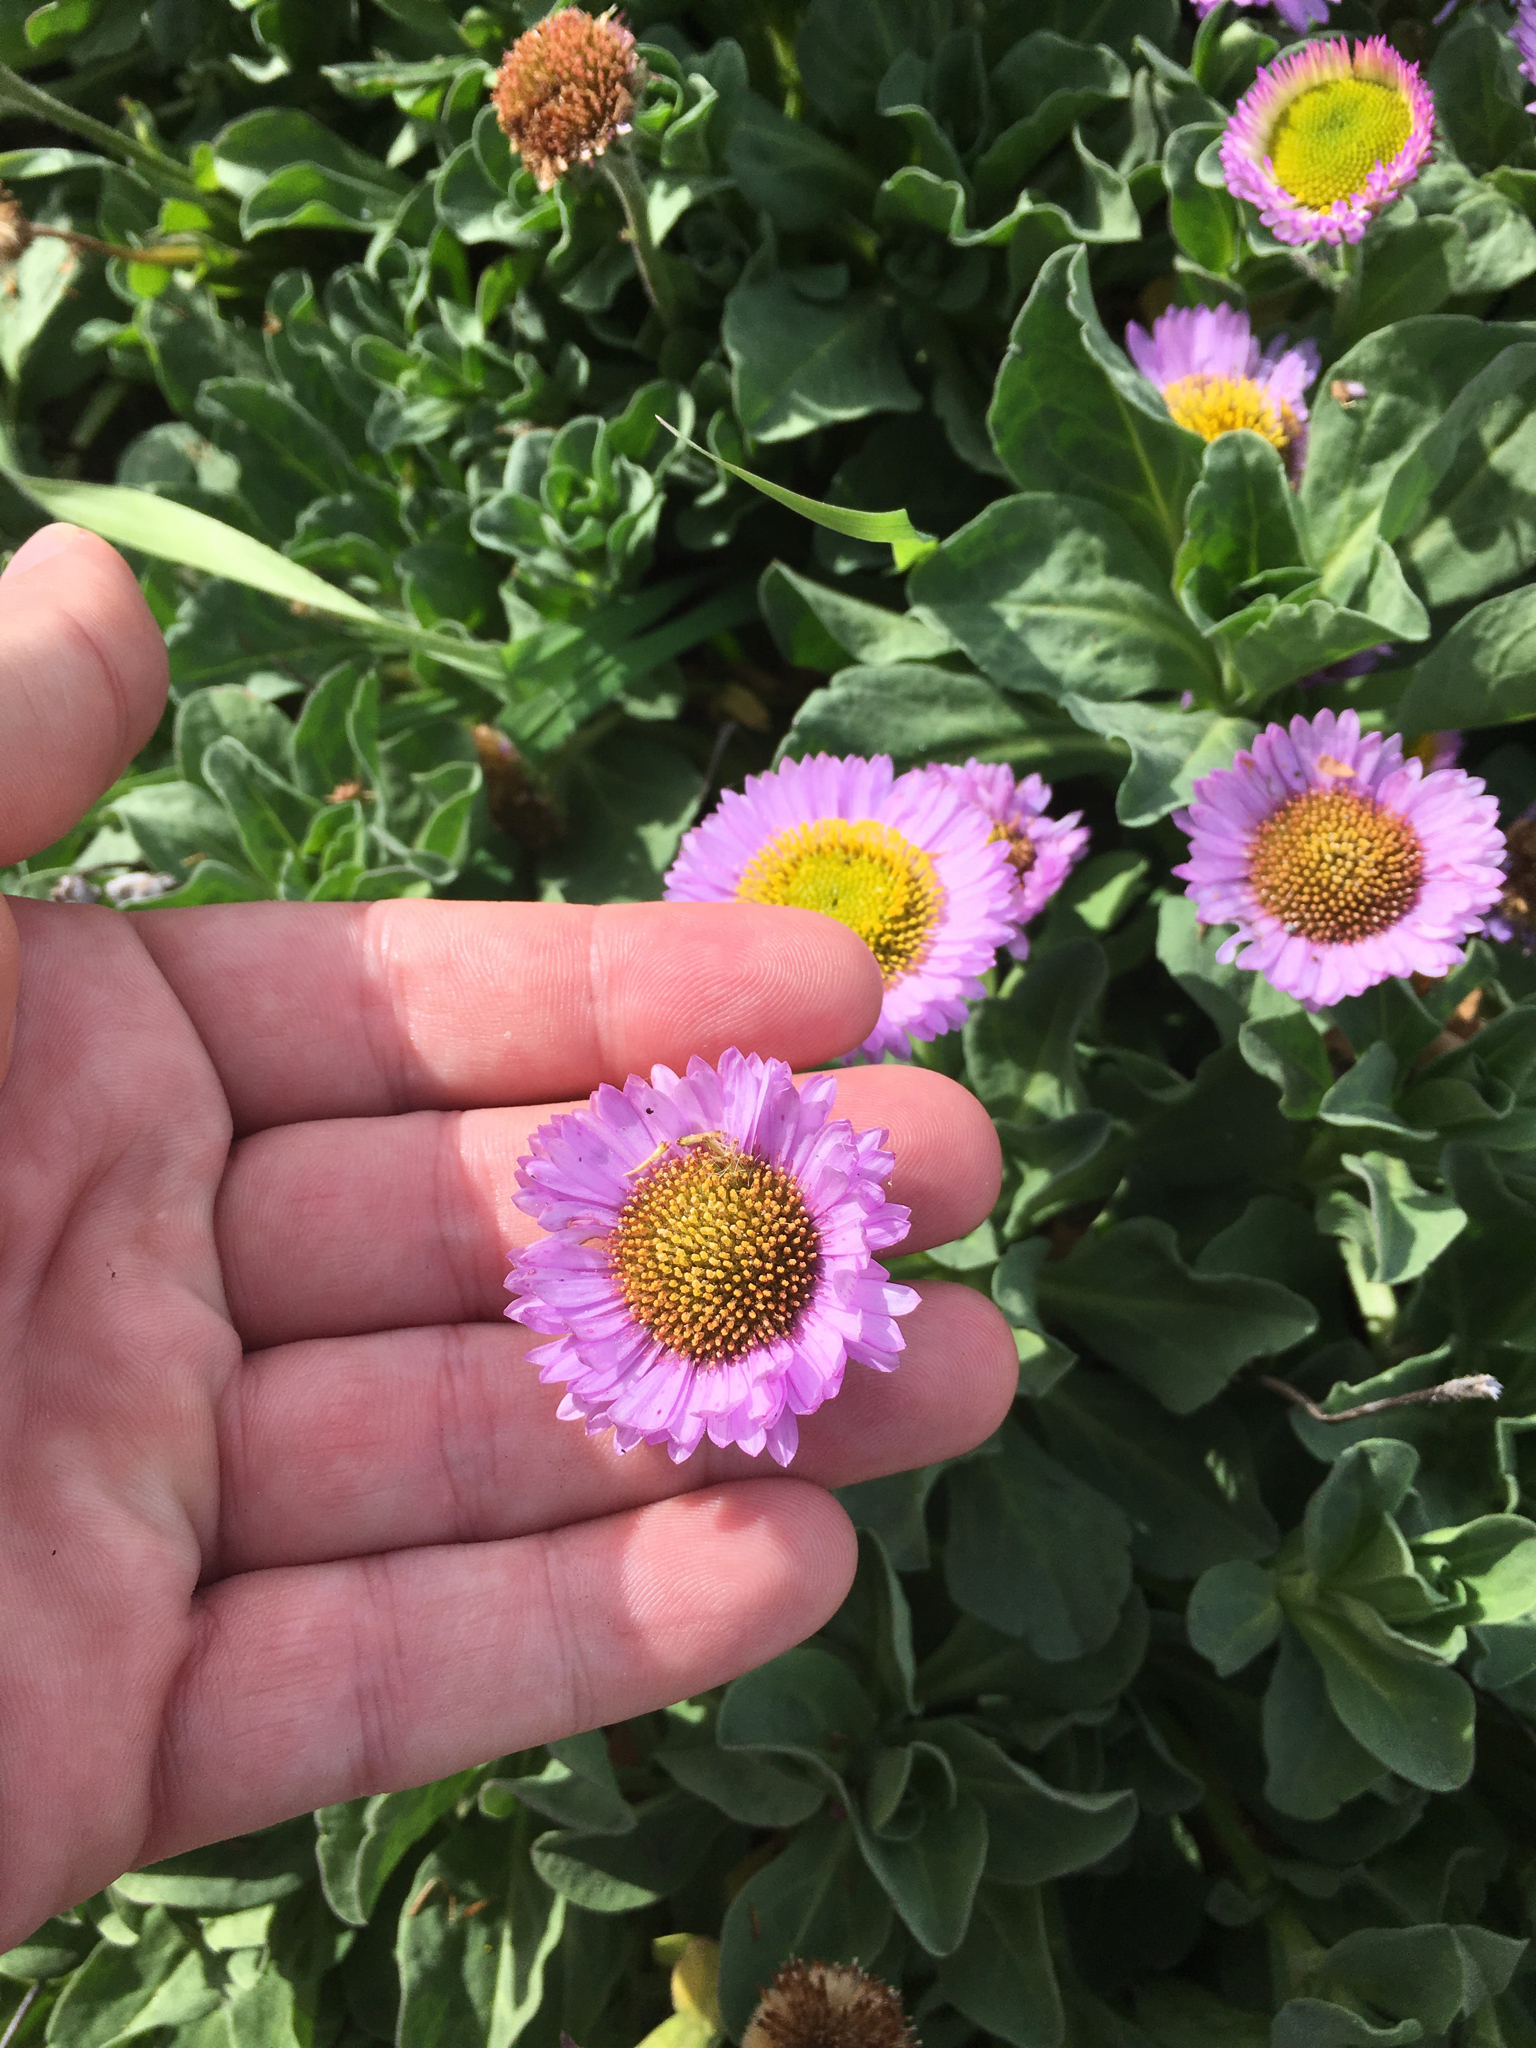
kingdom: Plantae
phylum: Tracheophyta
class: Magnoliopsida
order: Asterales
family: Asteraceae
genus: Erigeron
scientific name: Erigeron glaucus
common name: Seaside daisy
